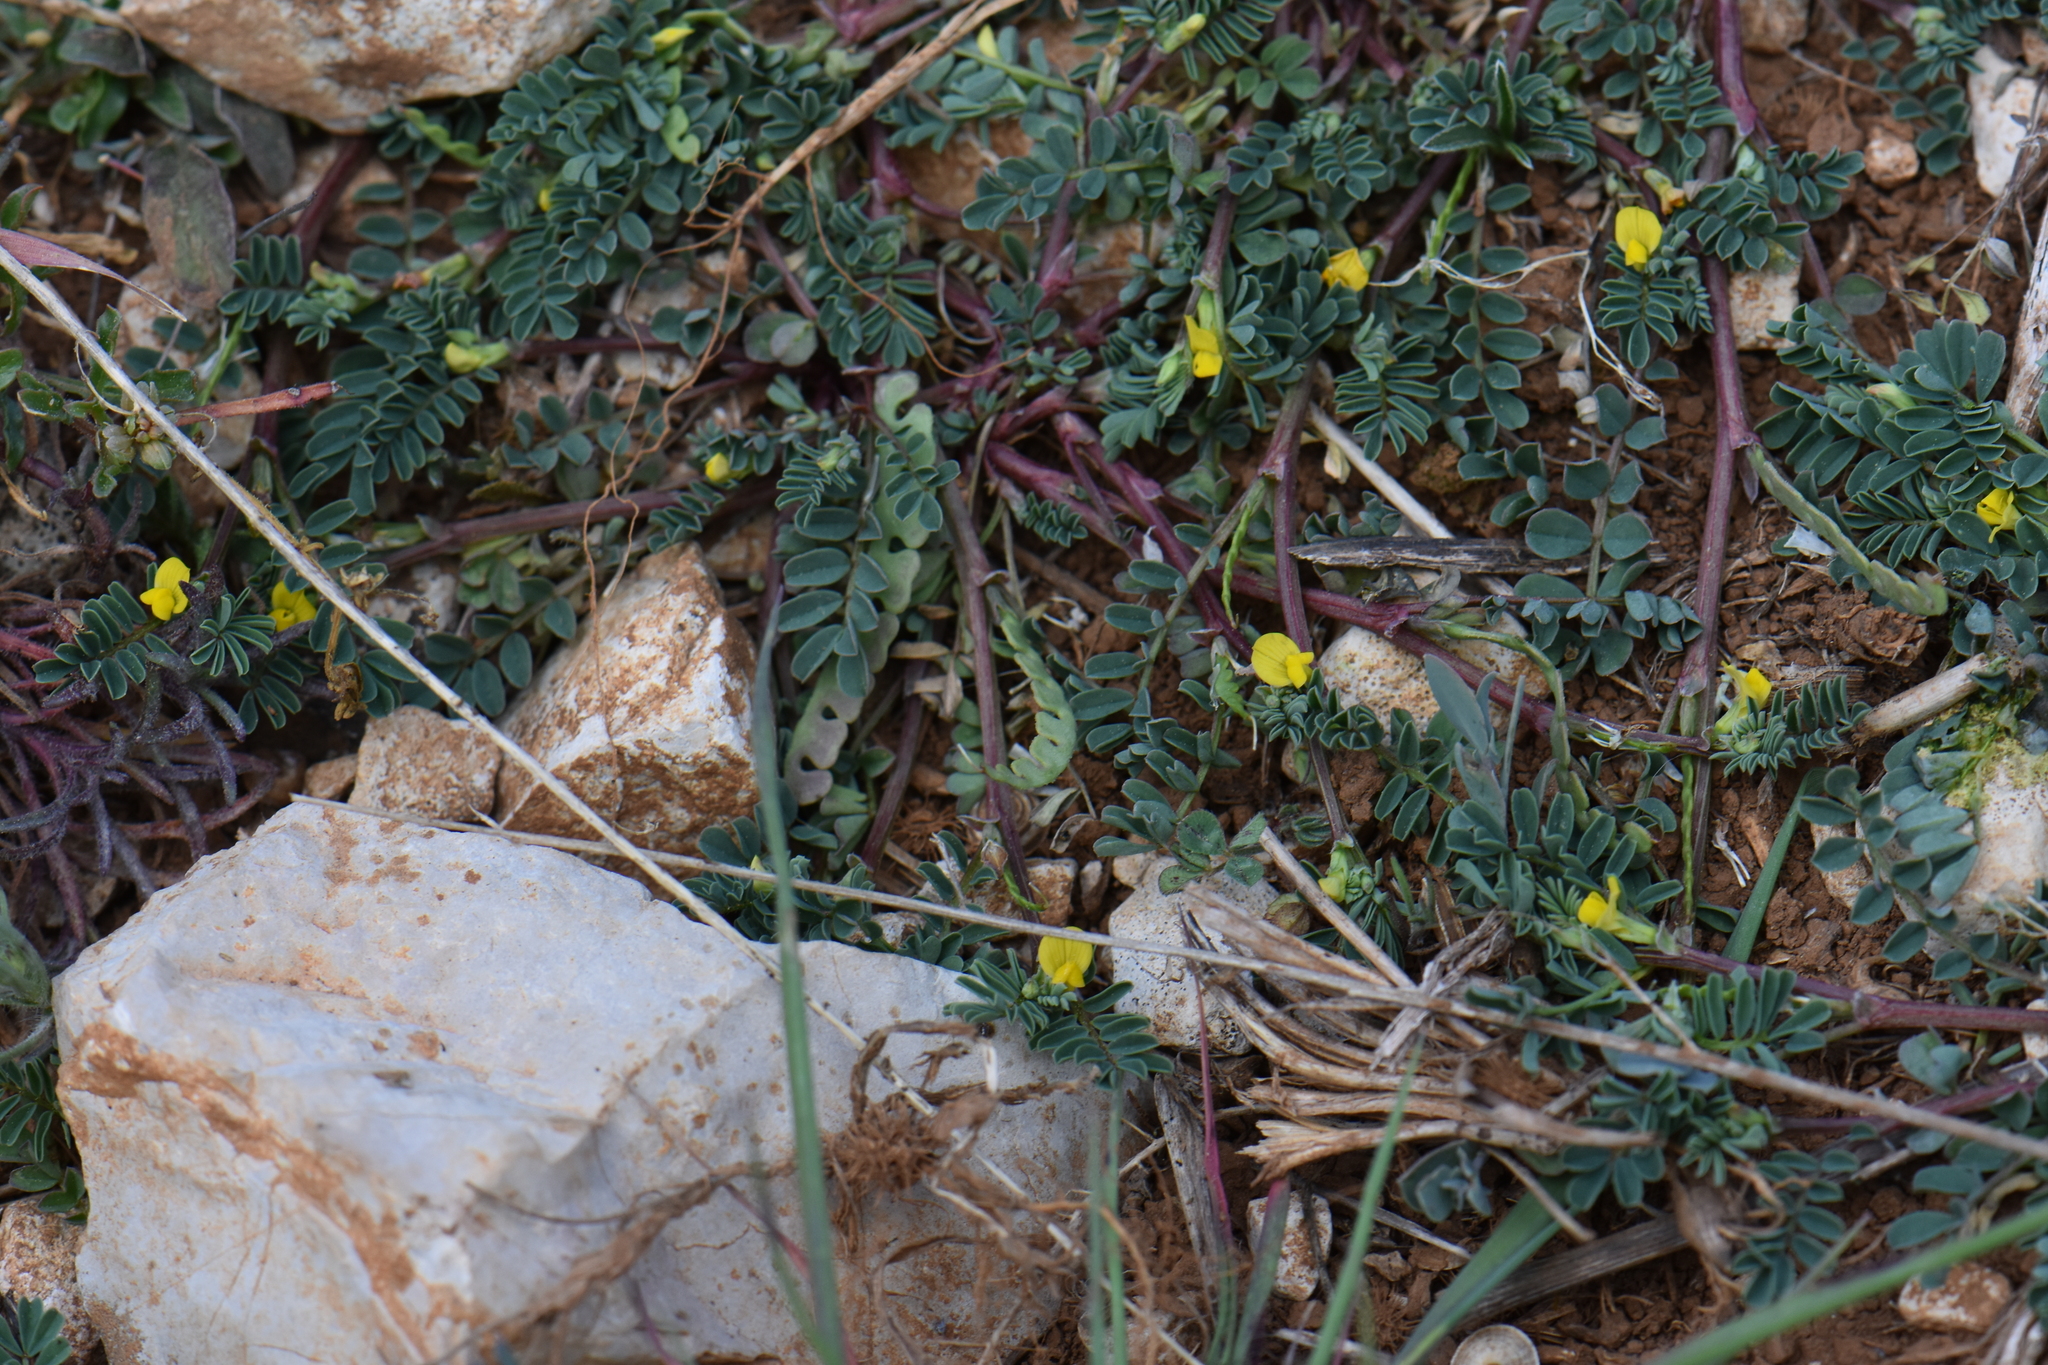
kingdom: Plantae
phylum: Tracheophyta
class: Magnoliopsida
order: Fabales
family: Fabaceae
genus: Hippocrepis
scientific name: Hippocrepis biflora
